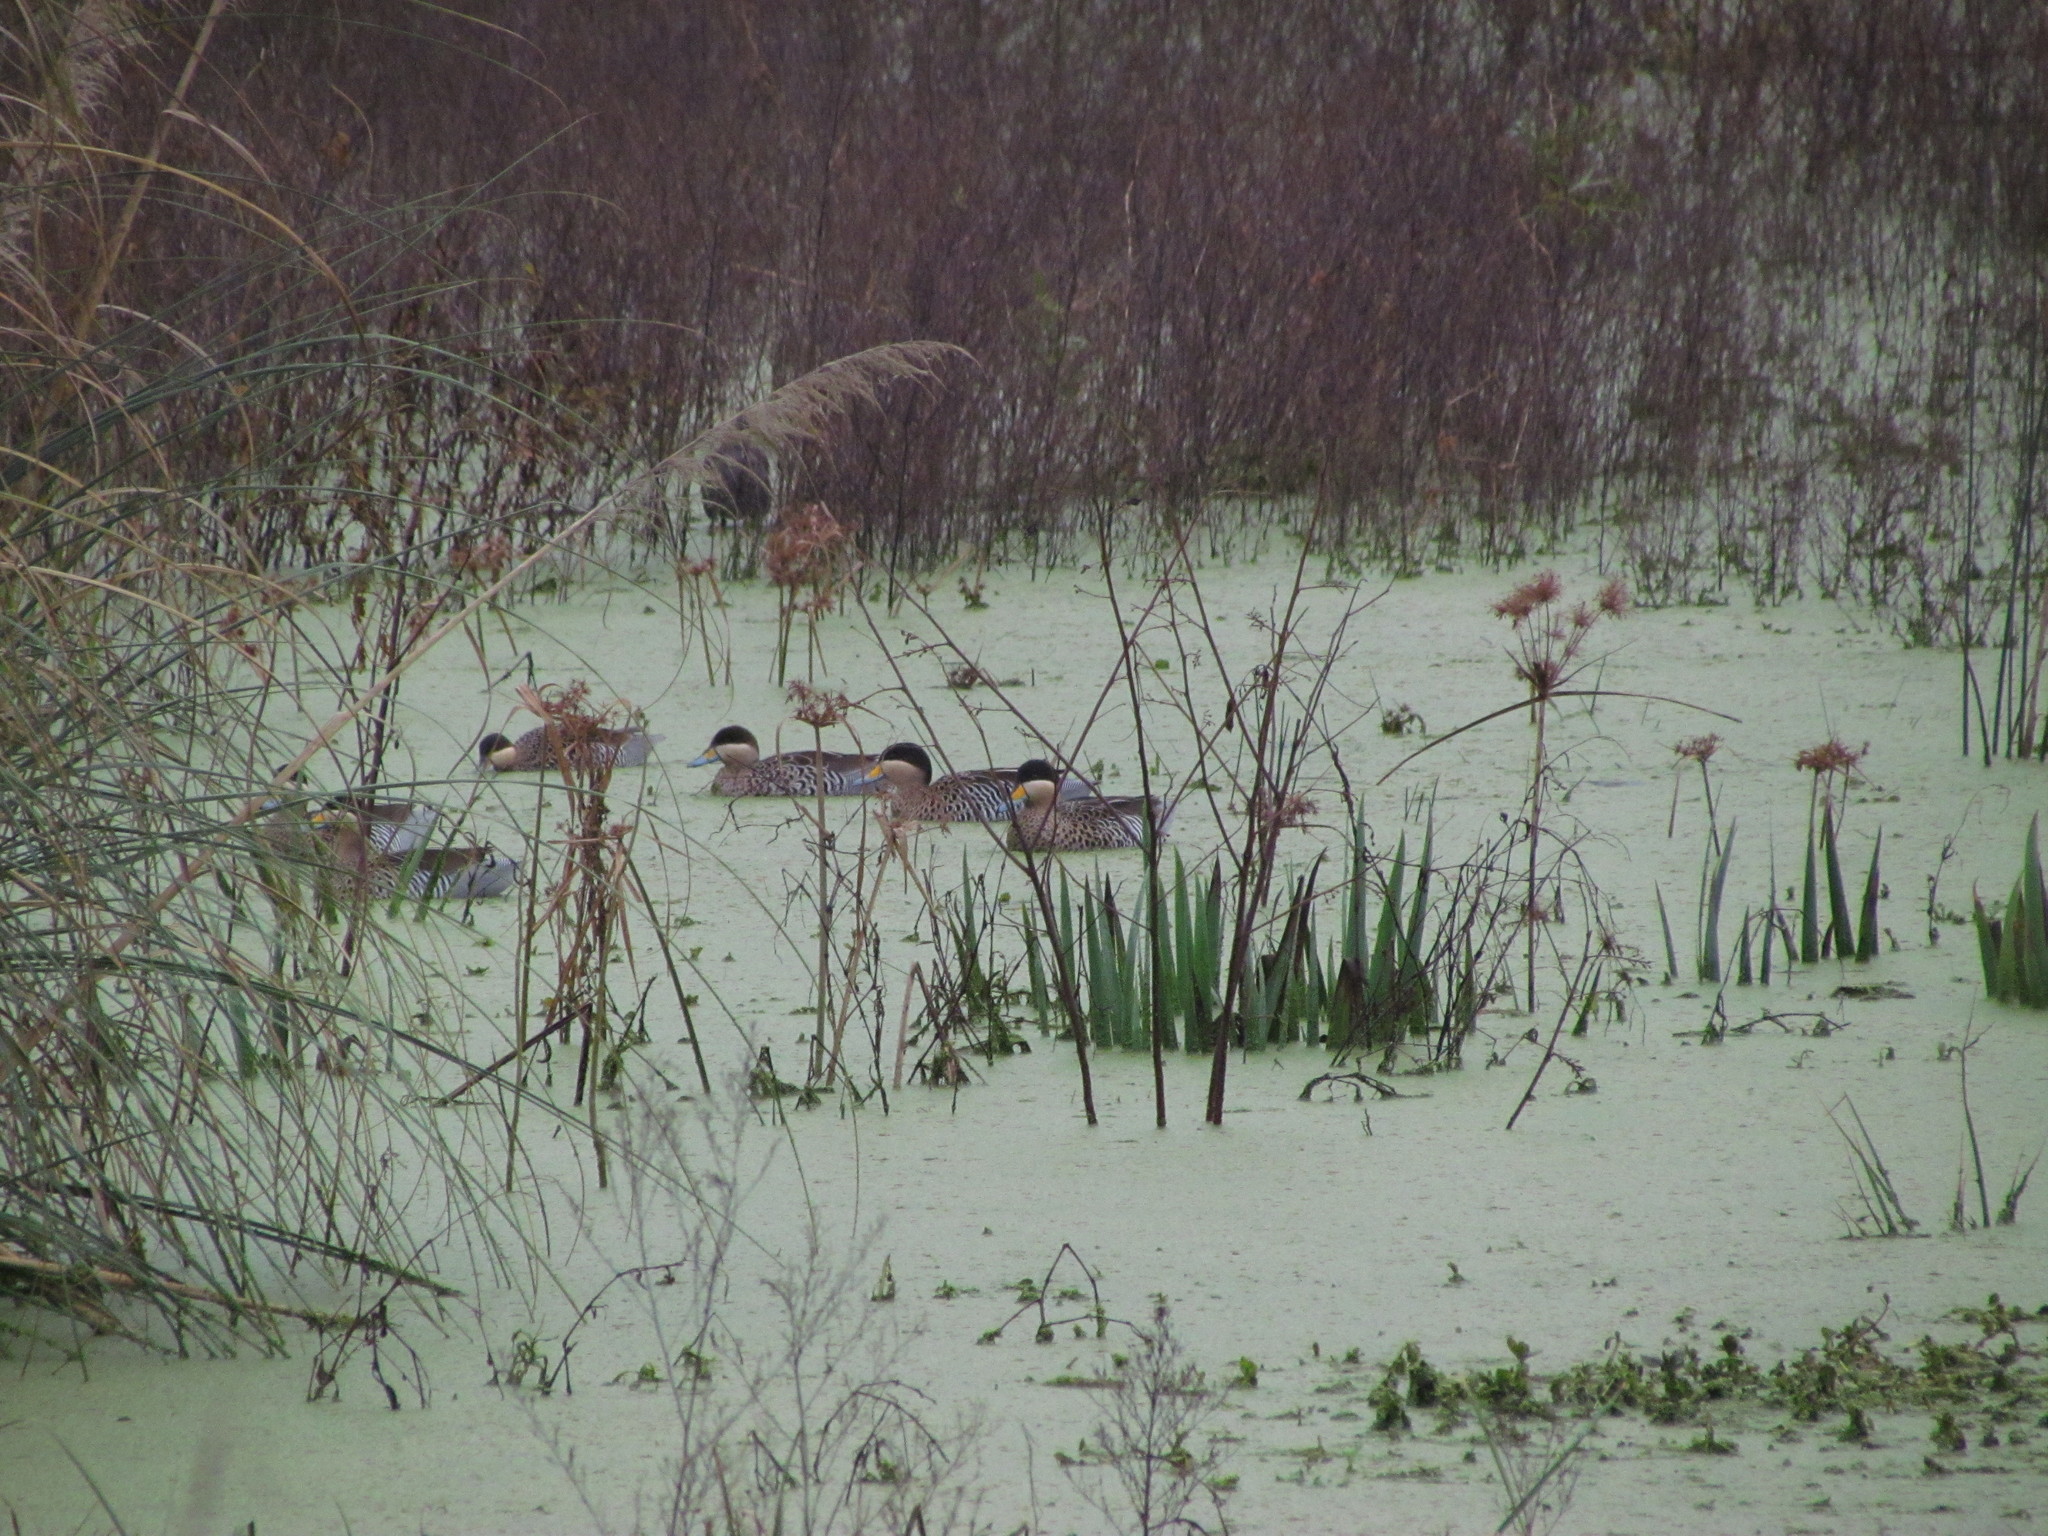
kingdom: Animalia
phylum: Chordata
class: Aves
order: Anseriformes
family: Anatidae
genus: Spatula
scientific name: Spatula versicolor
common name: Silver teal
